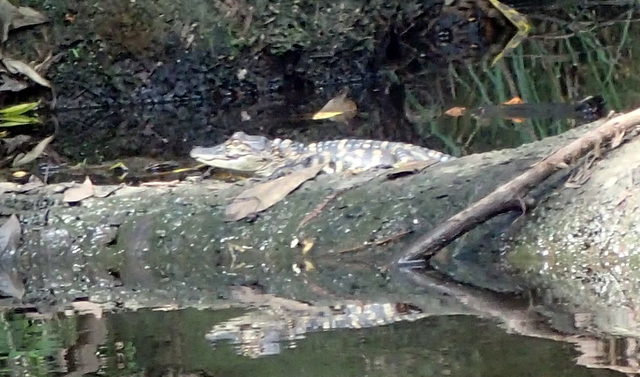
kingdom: Animalia
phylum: Chordata
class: Crocodylia
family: Alligatoridae
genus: Alligator
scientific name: Alligator mississippiensis
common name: American alligator
